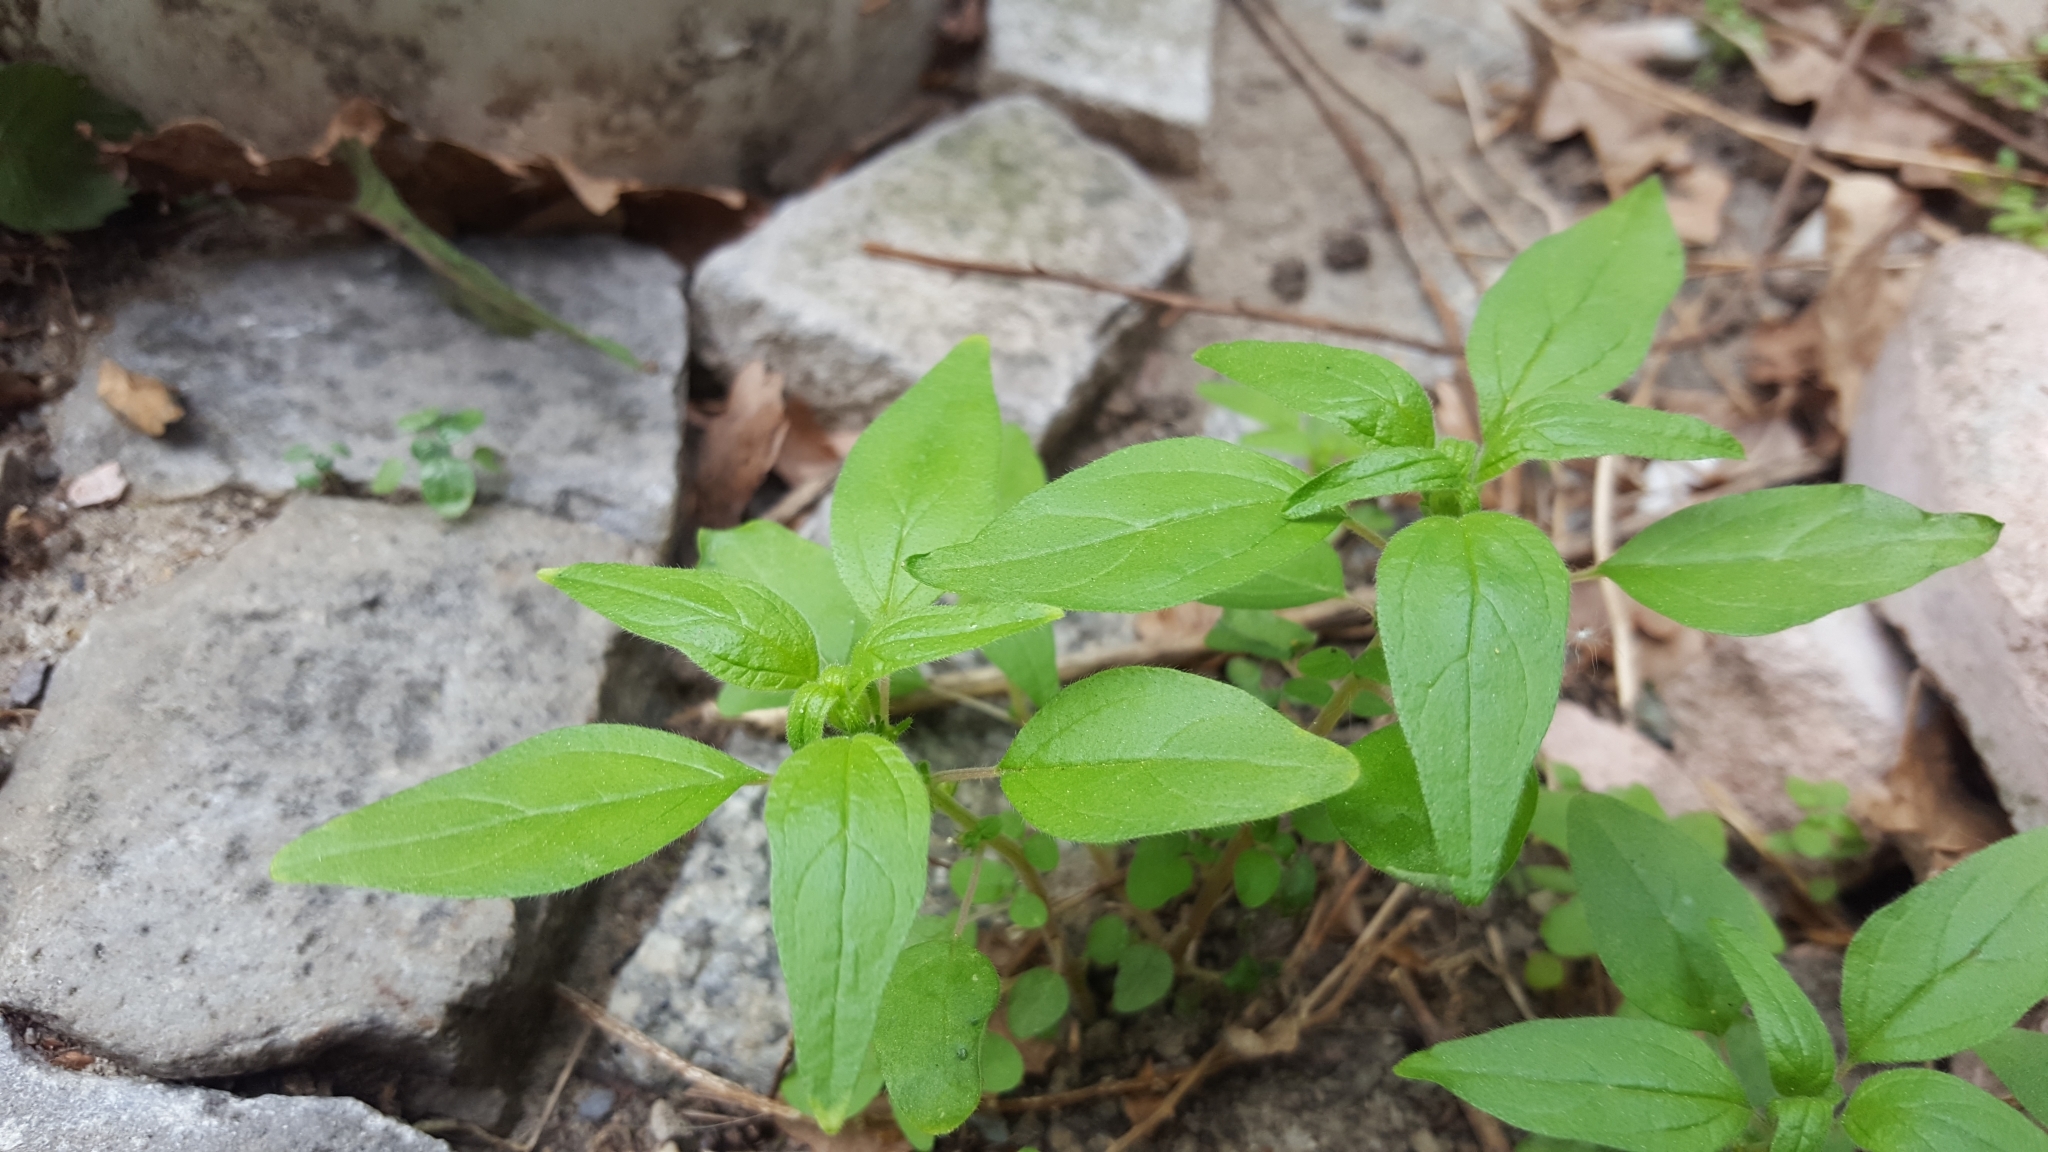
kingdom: Plantae
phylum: Tracheophyta
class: Magnoliopsida
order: Rosales
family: Urticaceae
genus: Parietaria
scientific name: Parietaria pensylvanica
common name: Pennsylvania pellitory
